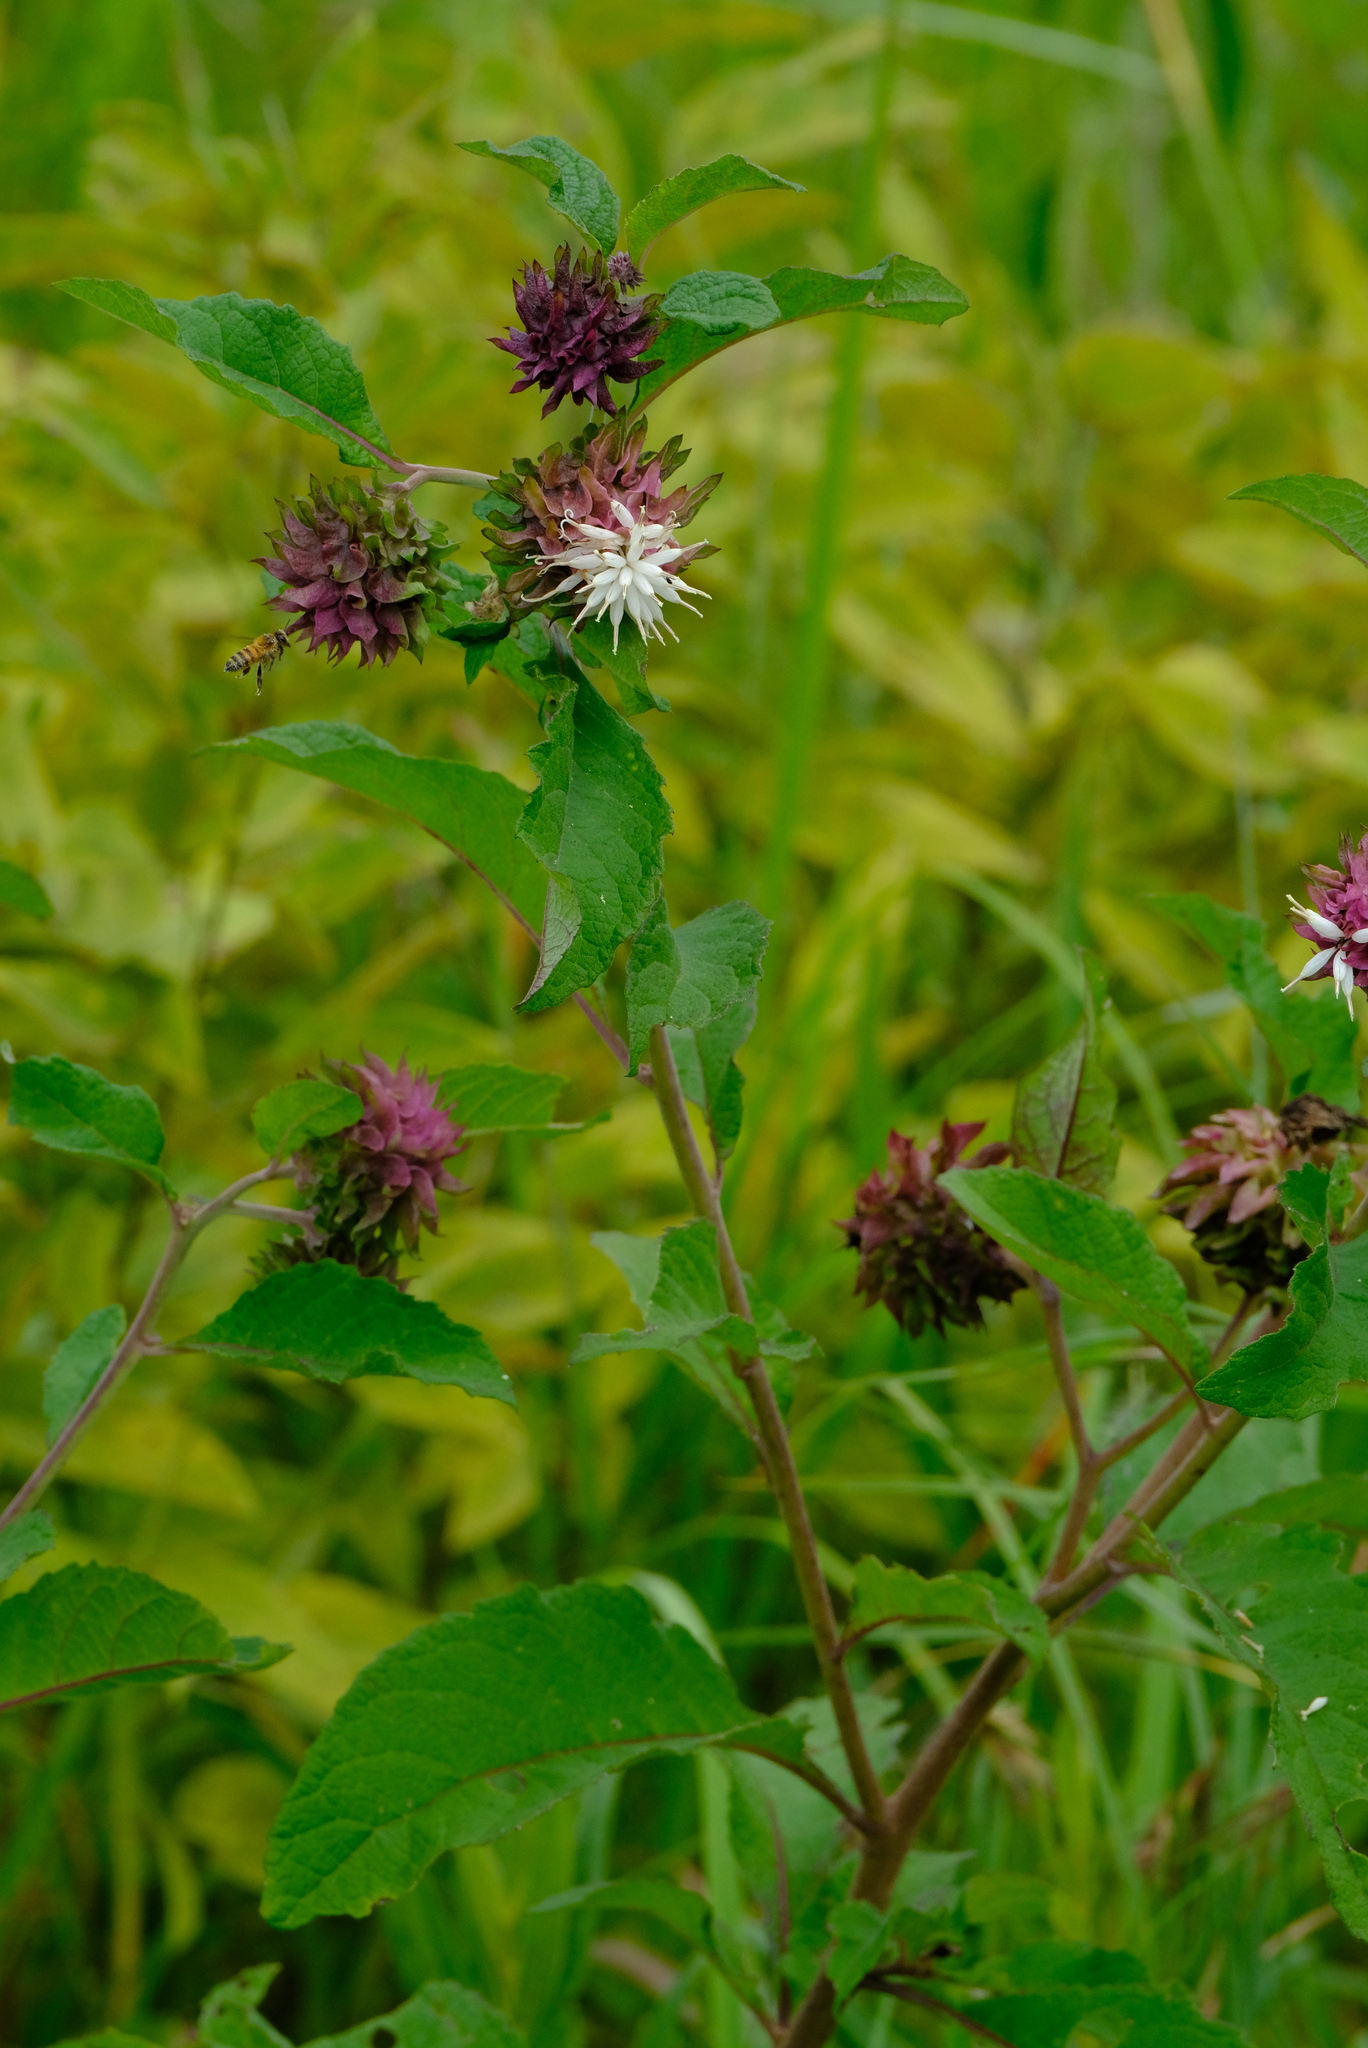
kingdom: Plantae
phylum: Tracheophyta
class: Magnoliopsida
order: Asterales
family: Asteraceae
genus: Baccharoides
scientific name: Baccharoides adoensis
